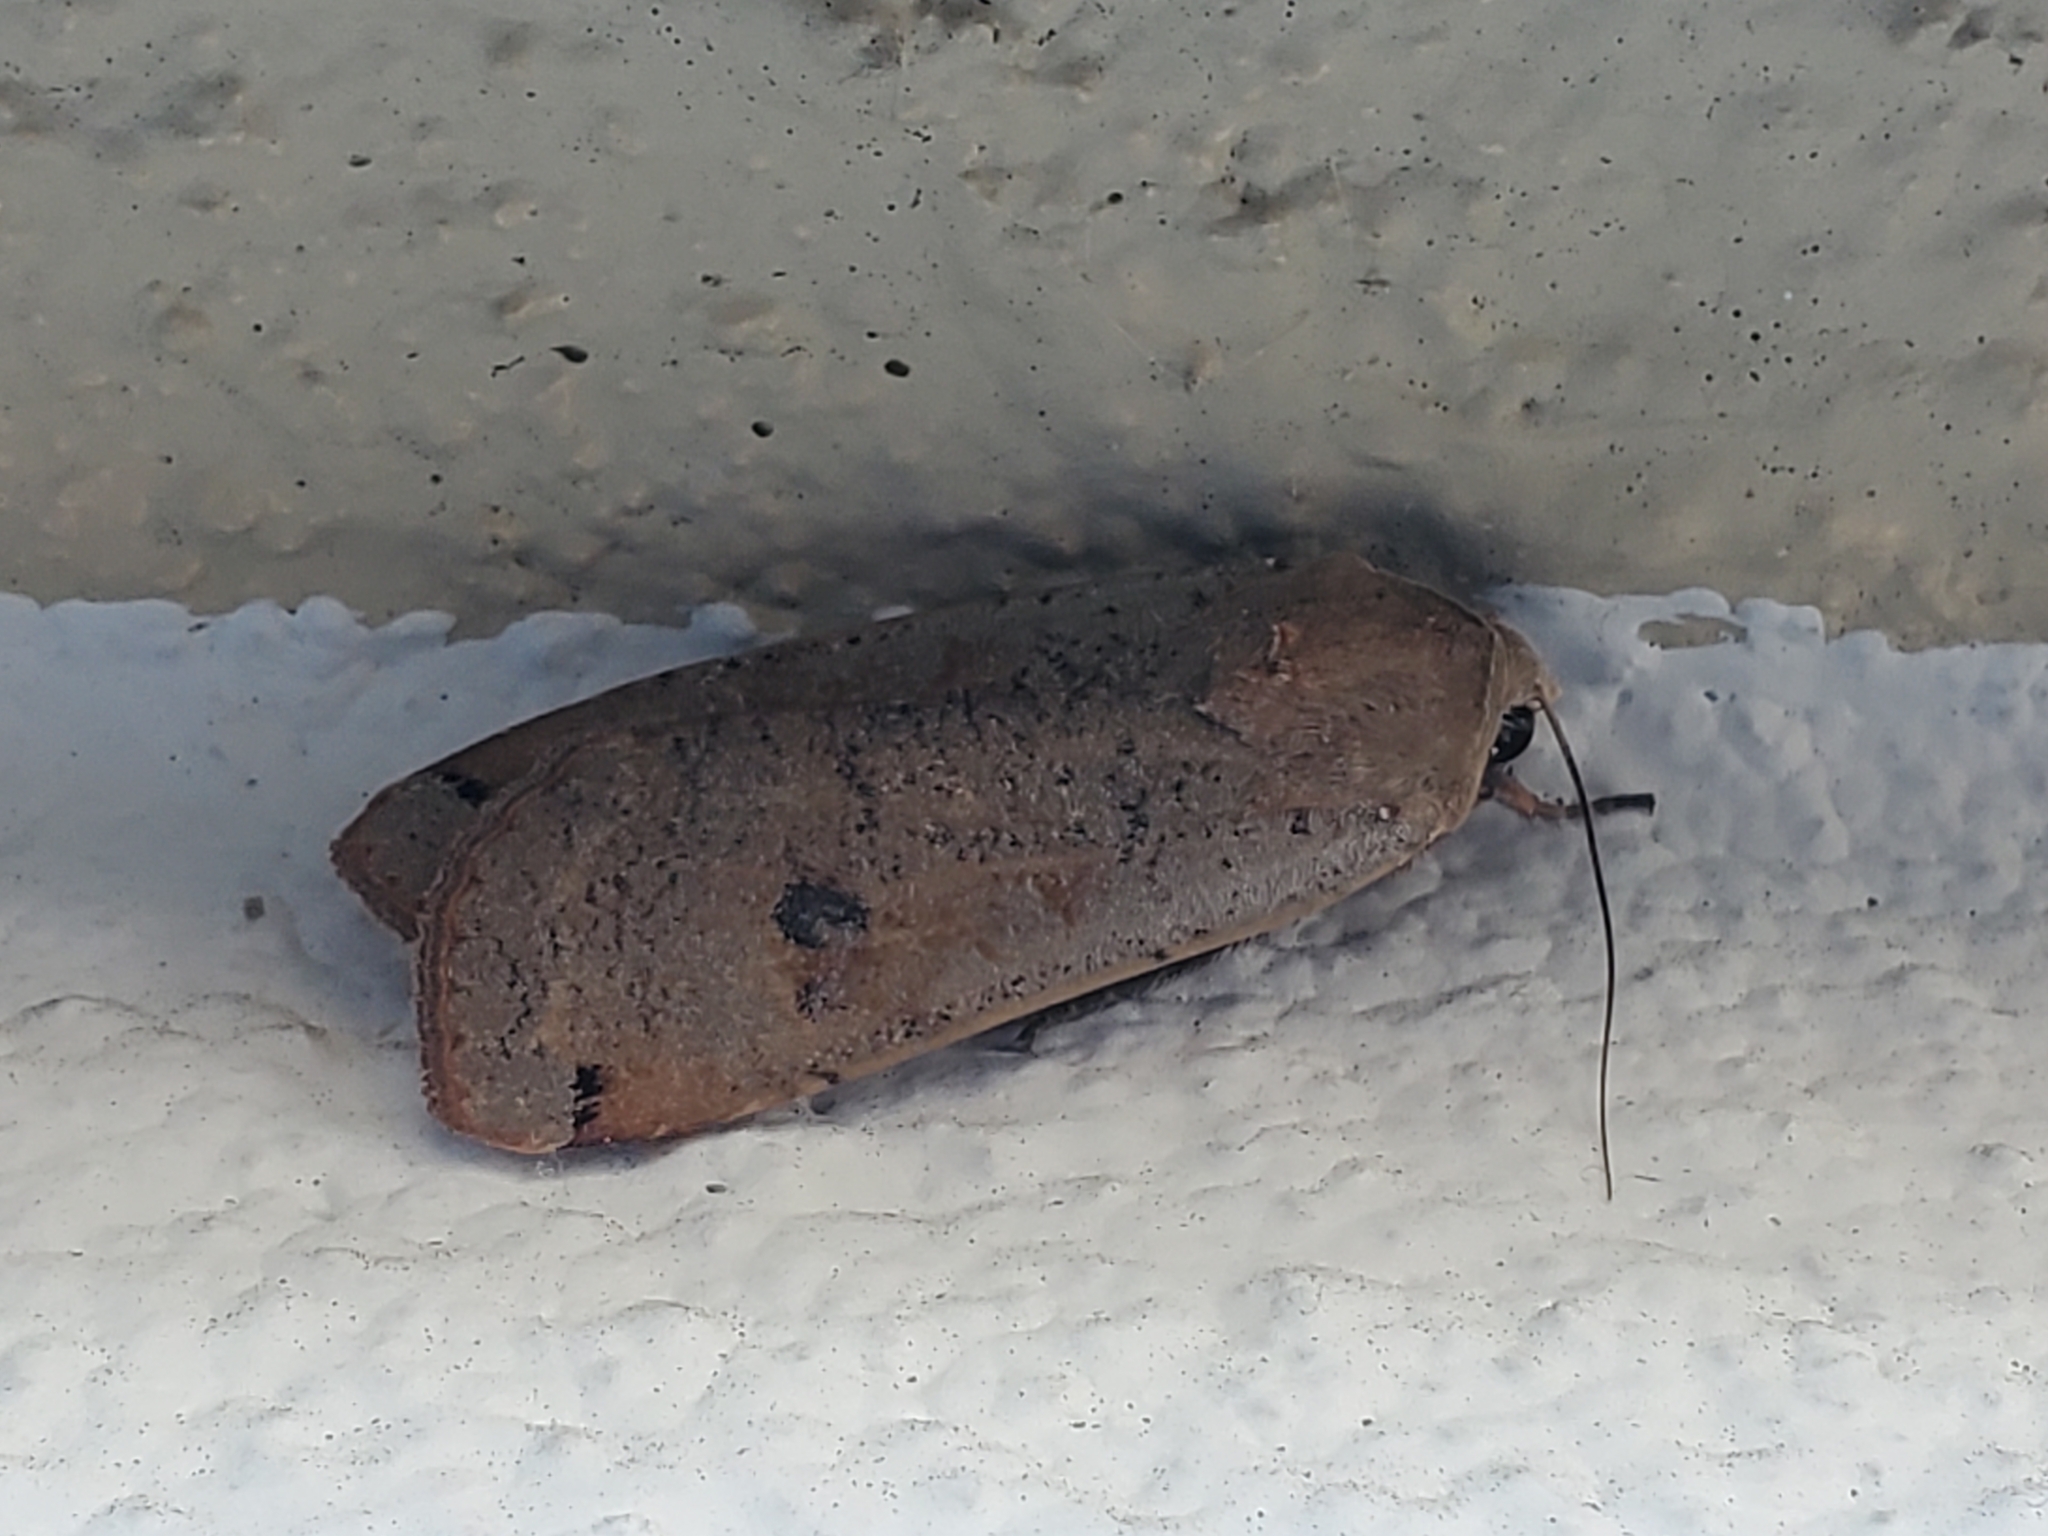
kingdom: Animalia
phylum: Arthropoda
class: Insecta
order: Lepidoptera
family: Noctuidae
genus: Noctua
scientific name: Noctua pronuba
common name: Large yellow underwing
